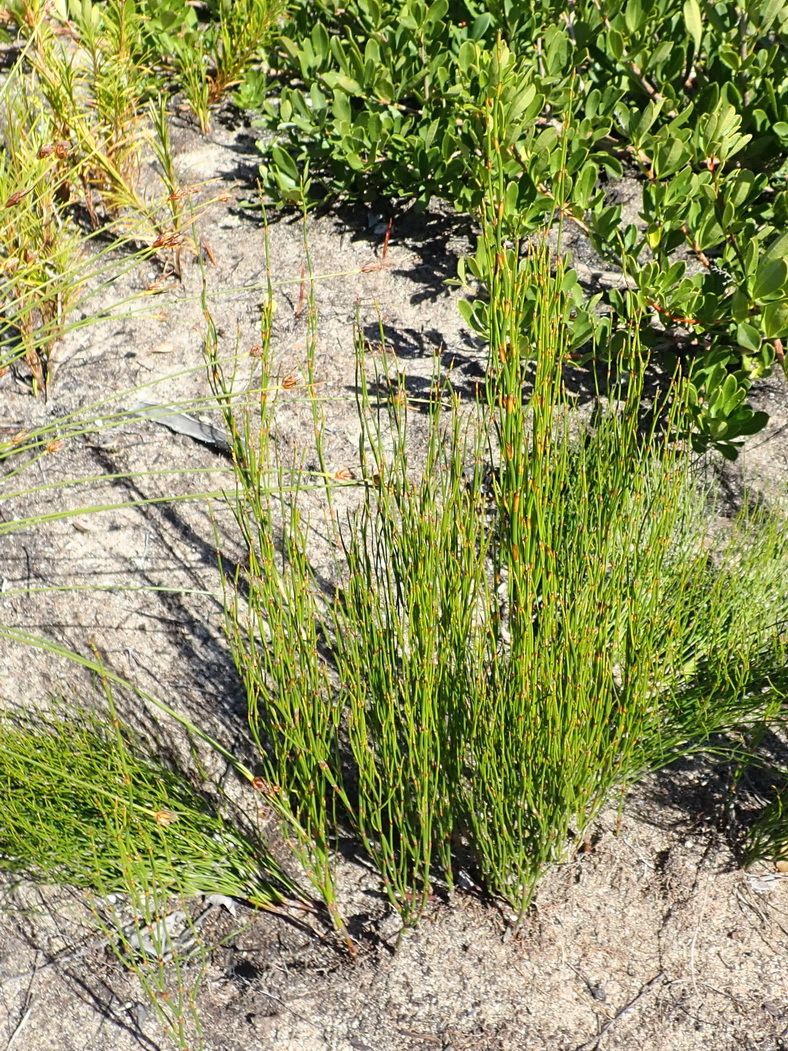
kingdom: Plantae
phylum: Tracheophyta
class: Liliopsida
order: Poales
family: Restionaceae
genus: Restio
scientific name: Restio eleocharis
